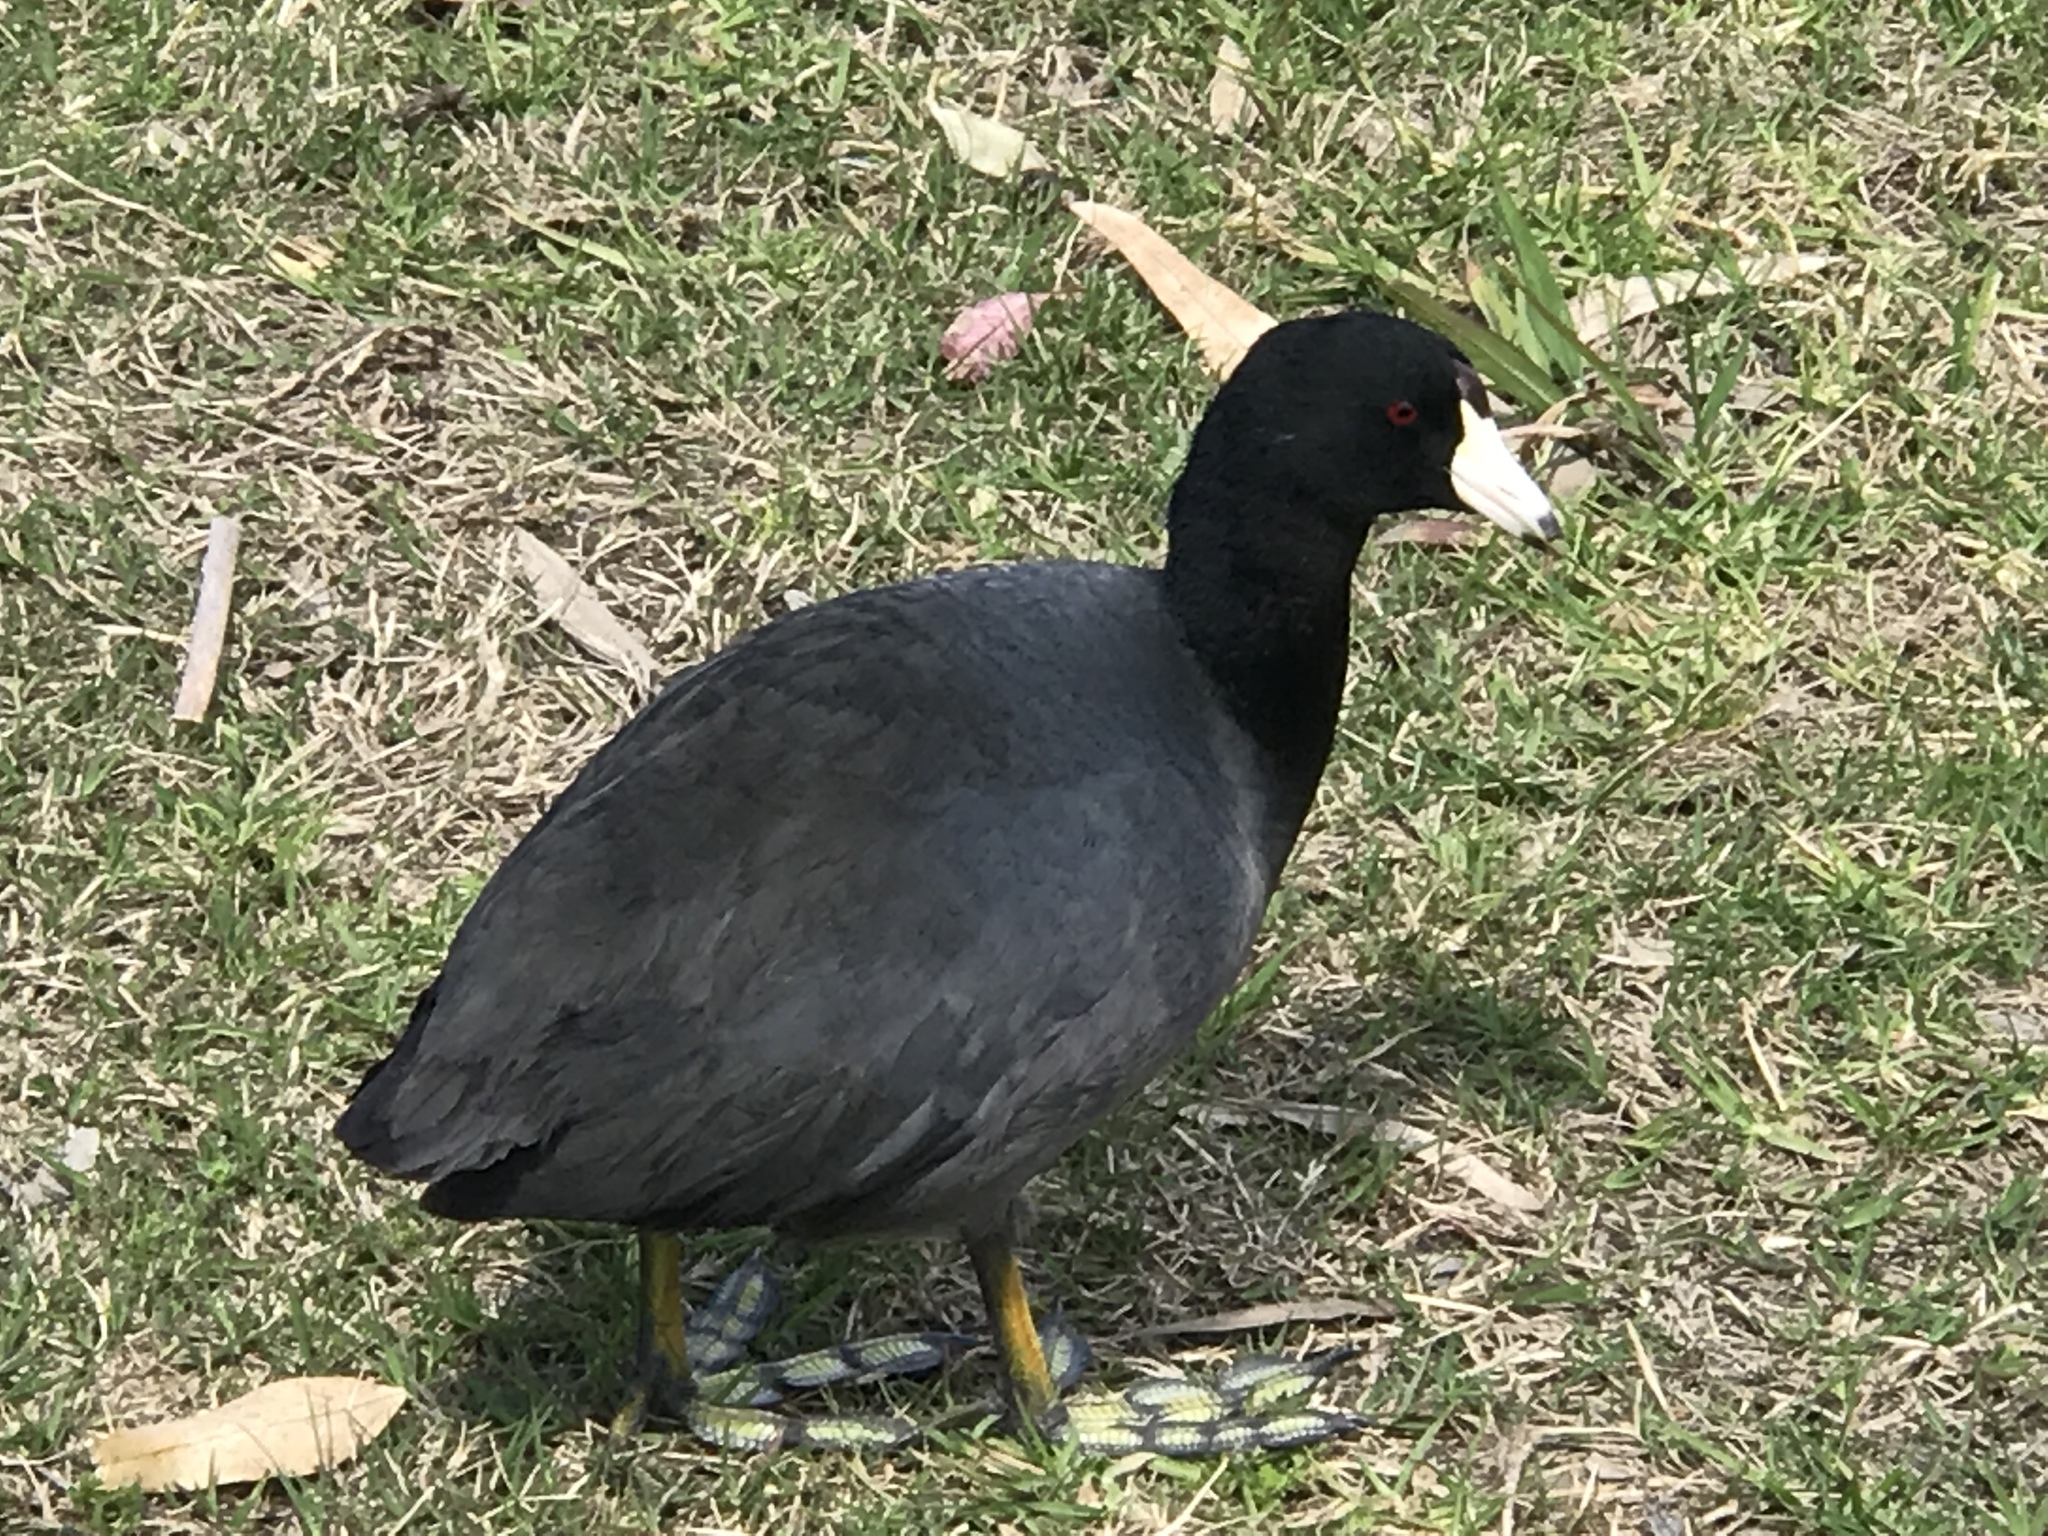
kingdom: Animalia
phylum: Chordata
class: Aves
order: Gruiformes
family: Rallidae
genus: Fulica
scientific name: Fulica americana
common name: American coot
